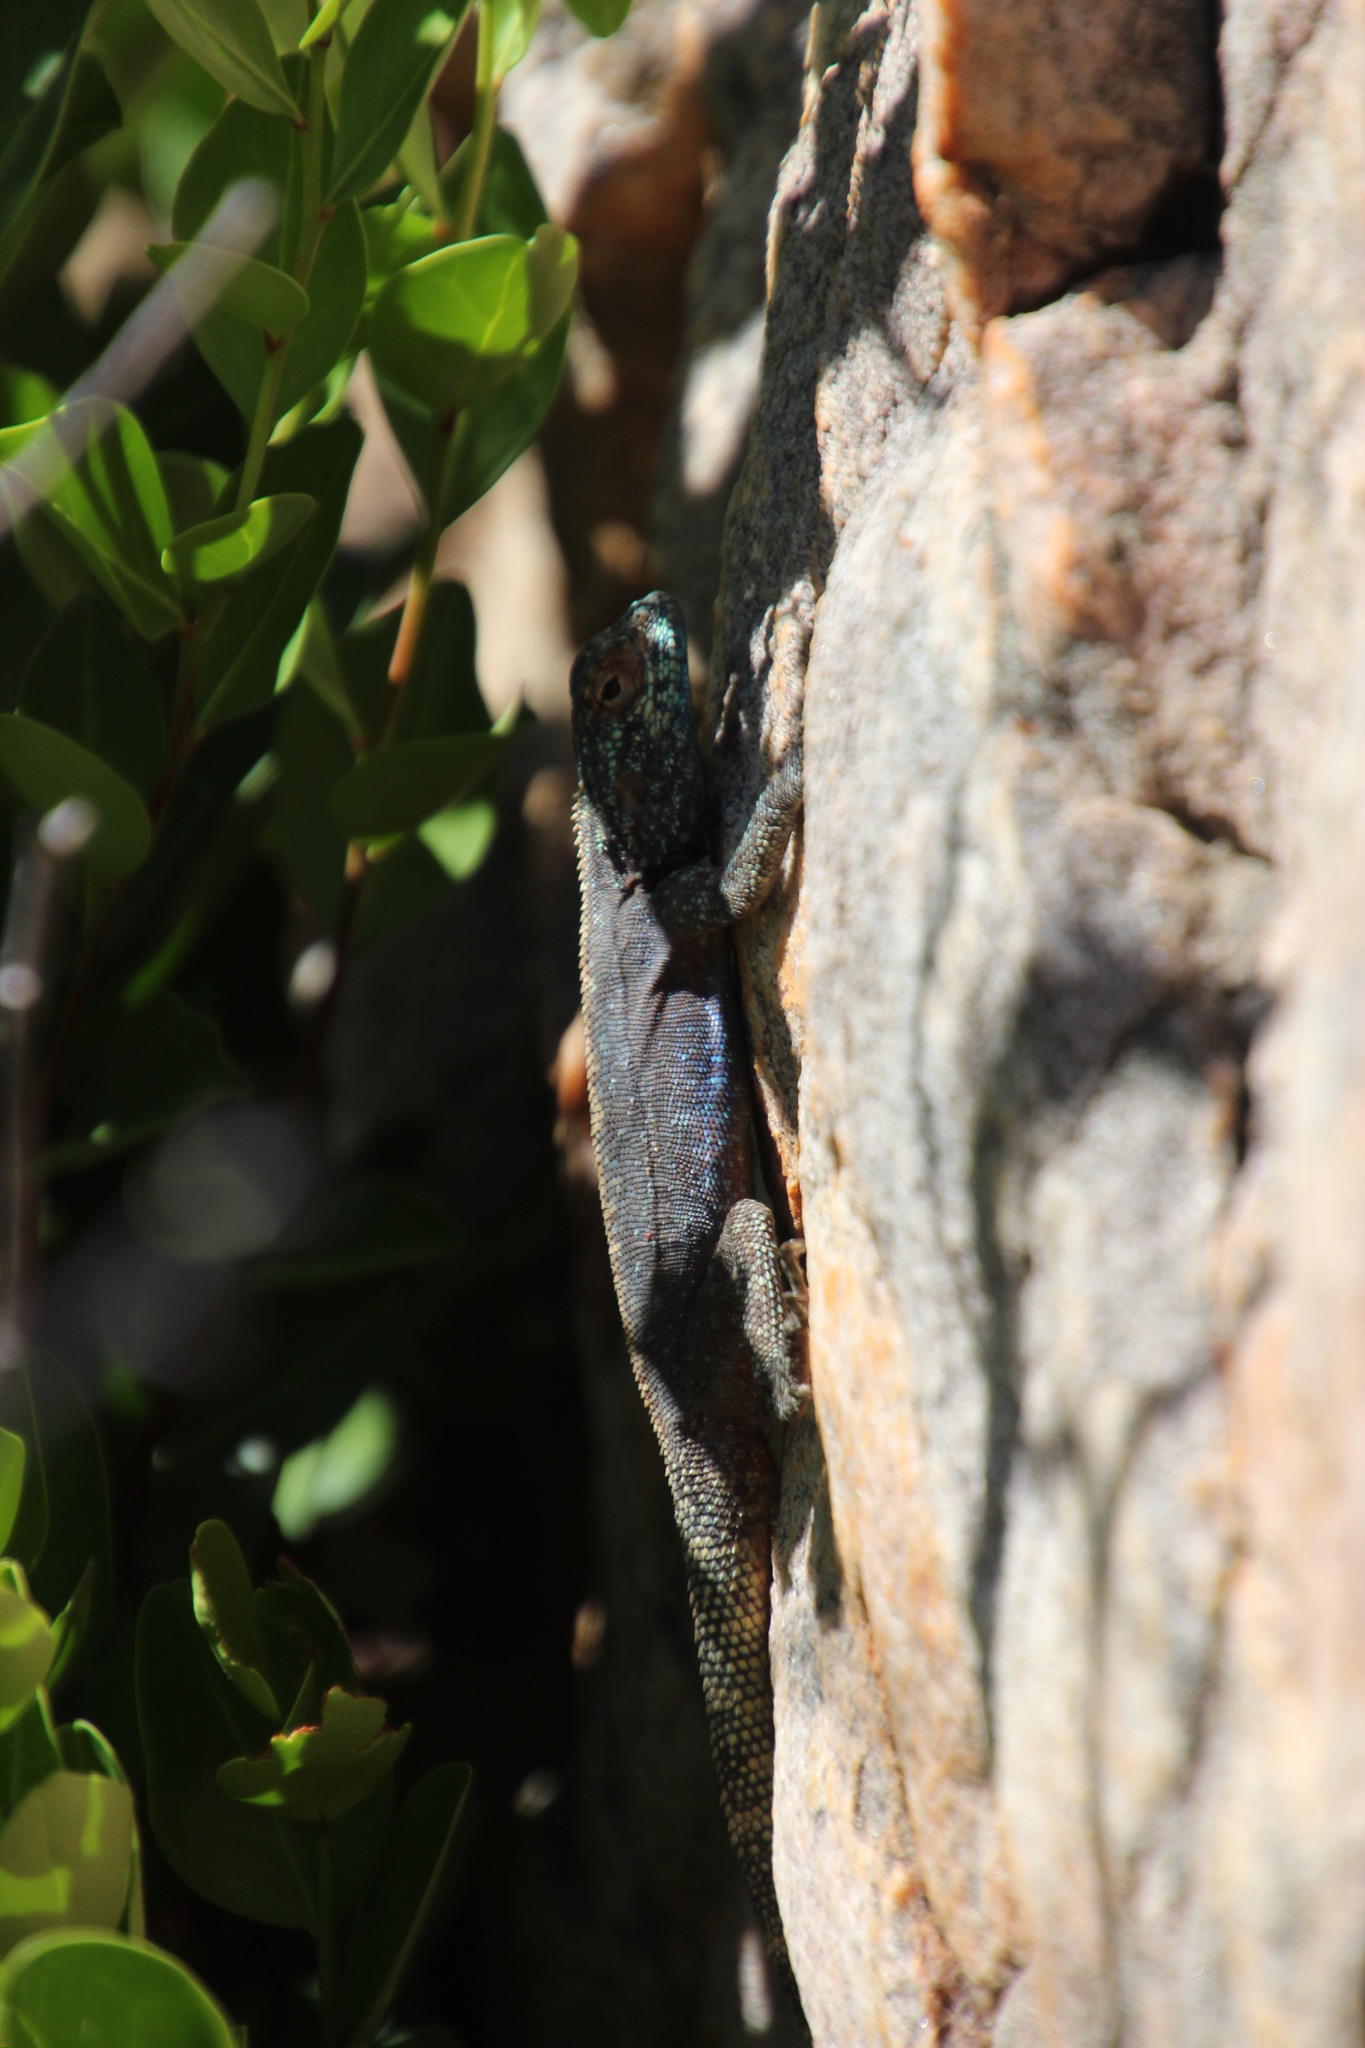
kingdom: Animalia
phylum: Chordata
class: Squamata
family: Agamidae
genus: Agama
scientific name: Agama atra
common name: Southern african rock agama
